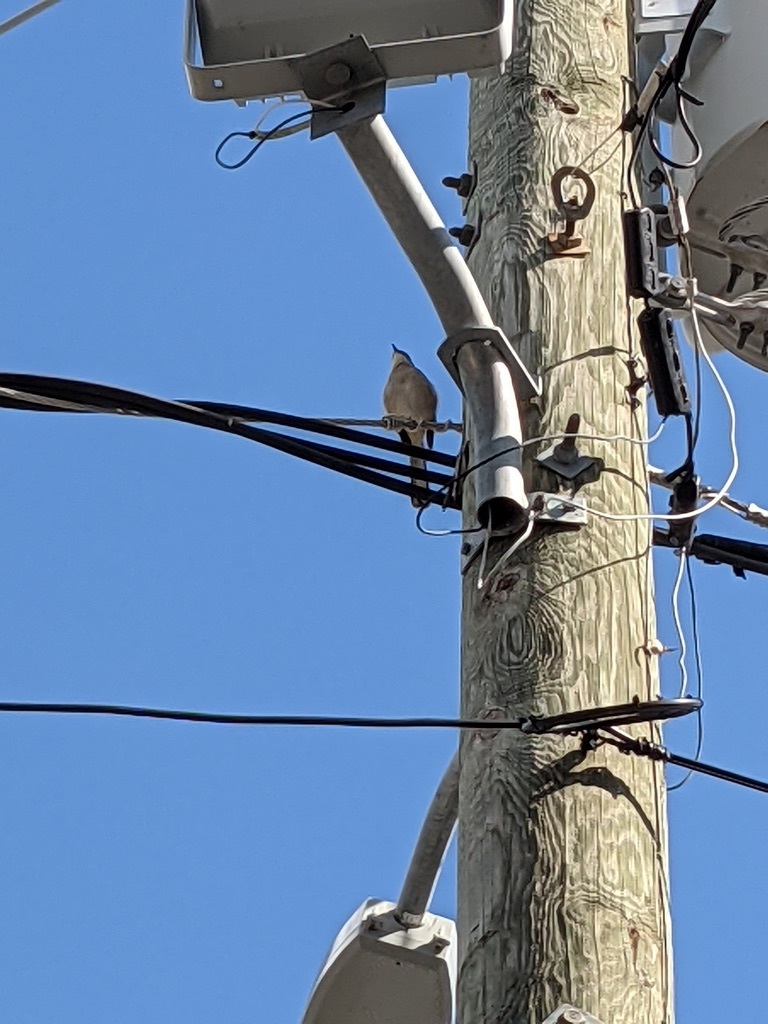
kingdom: Animalia
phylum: Chordata
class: Aves
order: Passeriformes
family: Mimidae
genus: Mimus
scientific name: Mimus polyglottos
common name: Northern mockingbird
